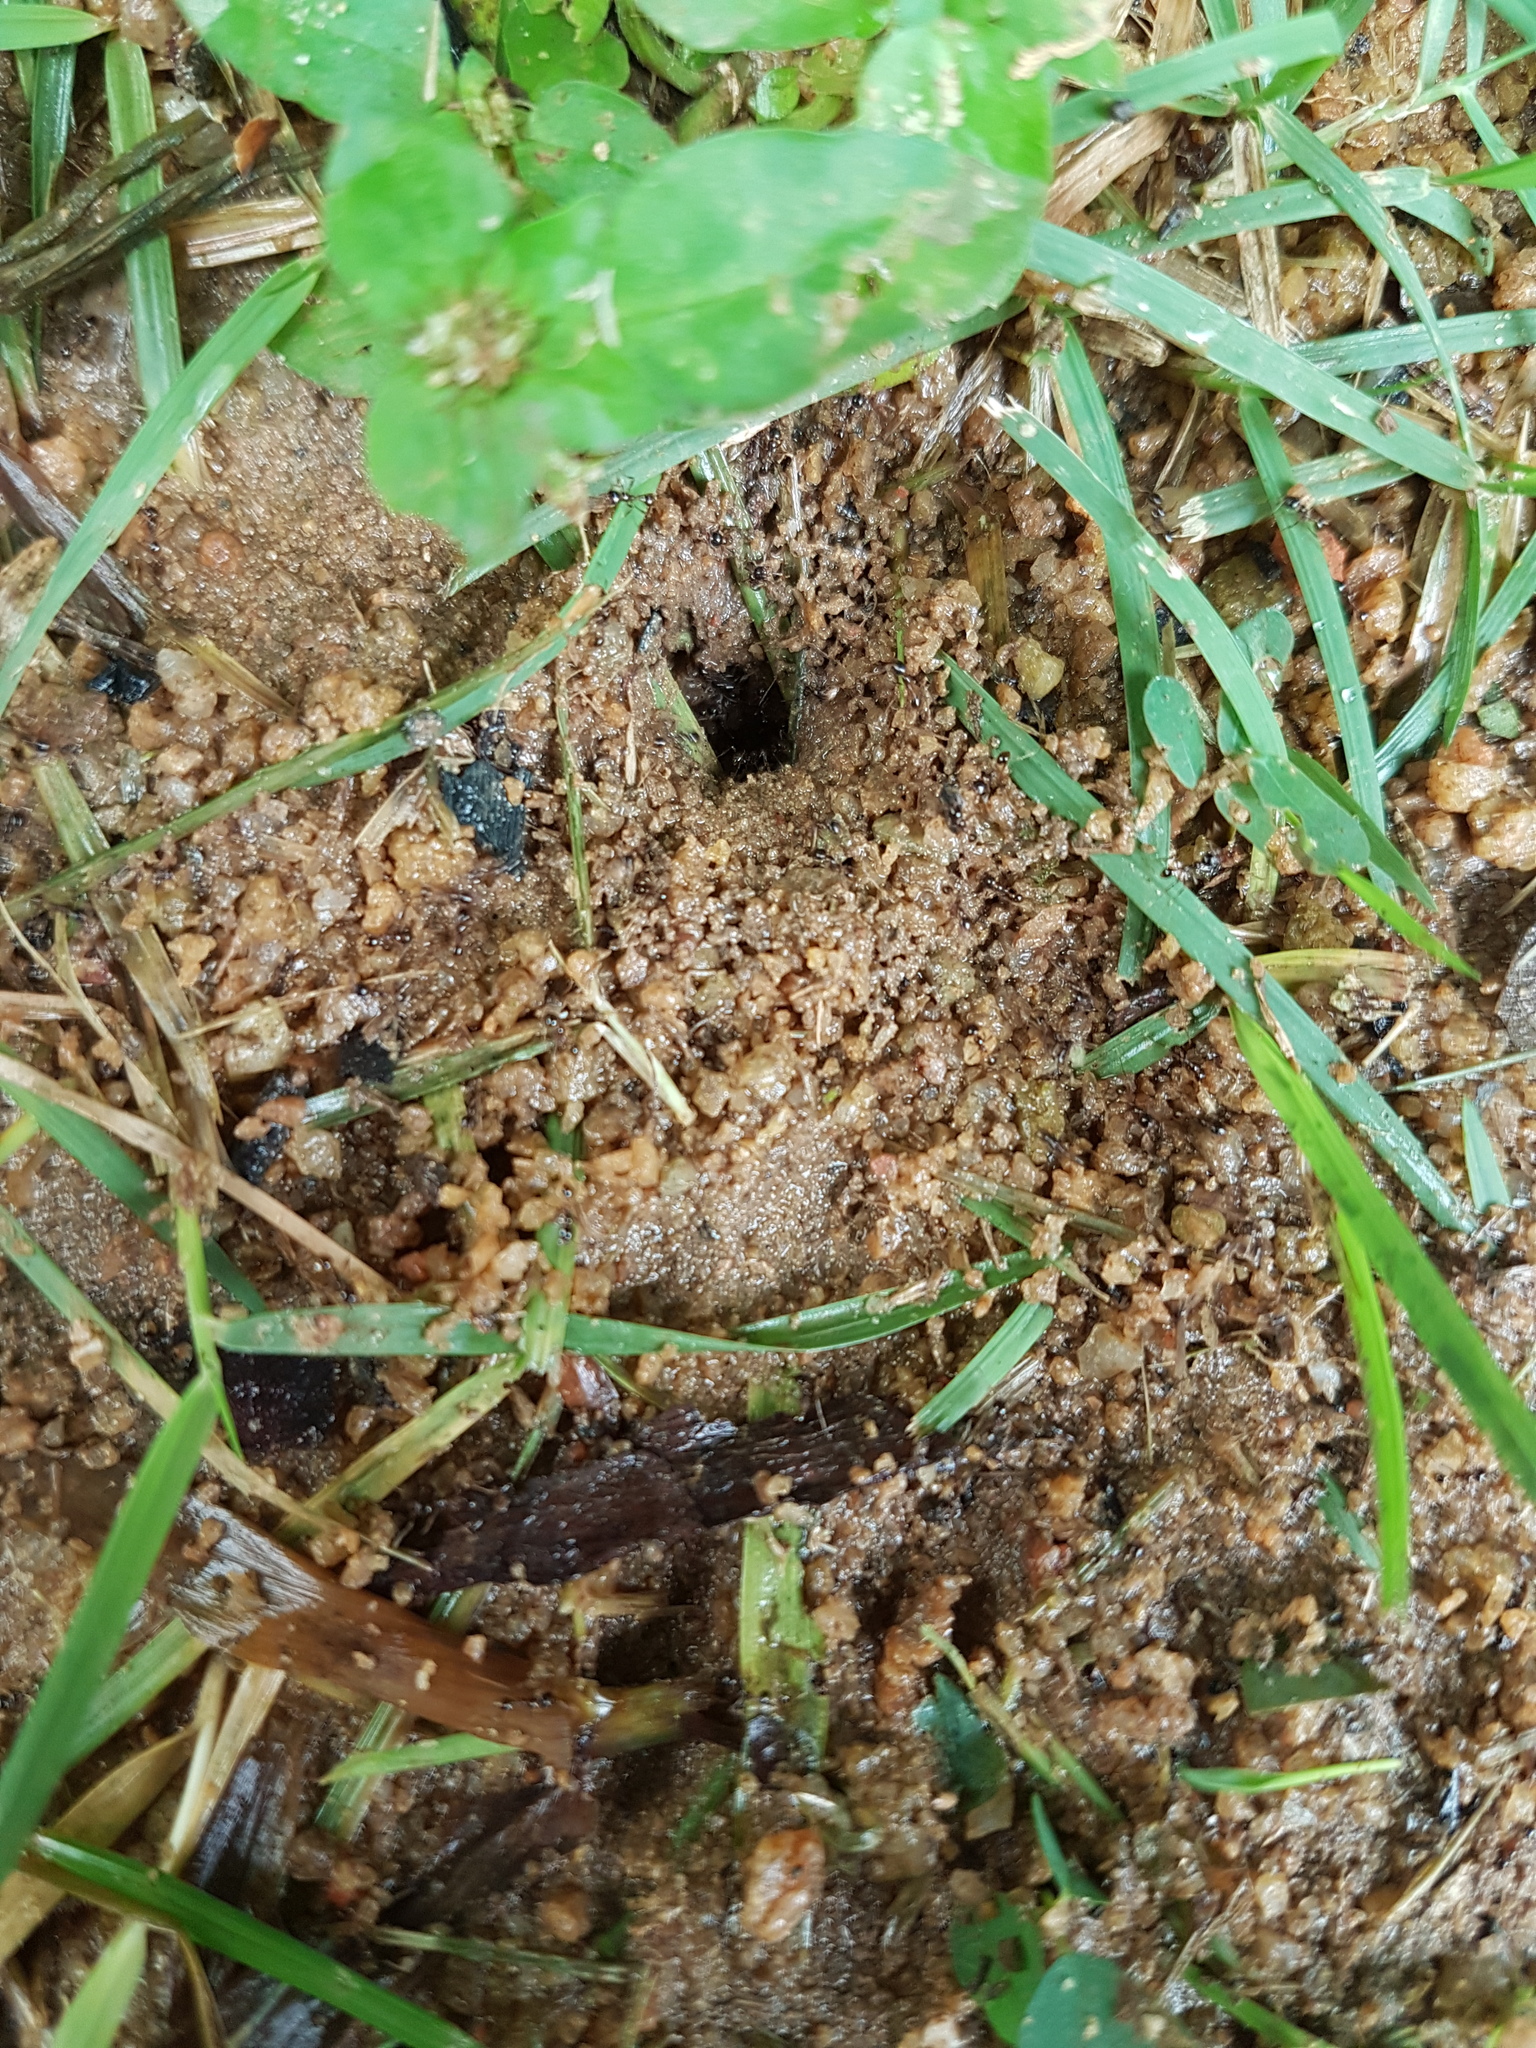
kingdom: Animalia
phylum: Arthropoda
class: Insecta
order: Hymenoptera
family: Formicidae
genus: Pheidologeton
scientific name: Pheidologeton diversus
